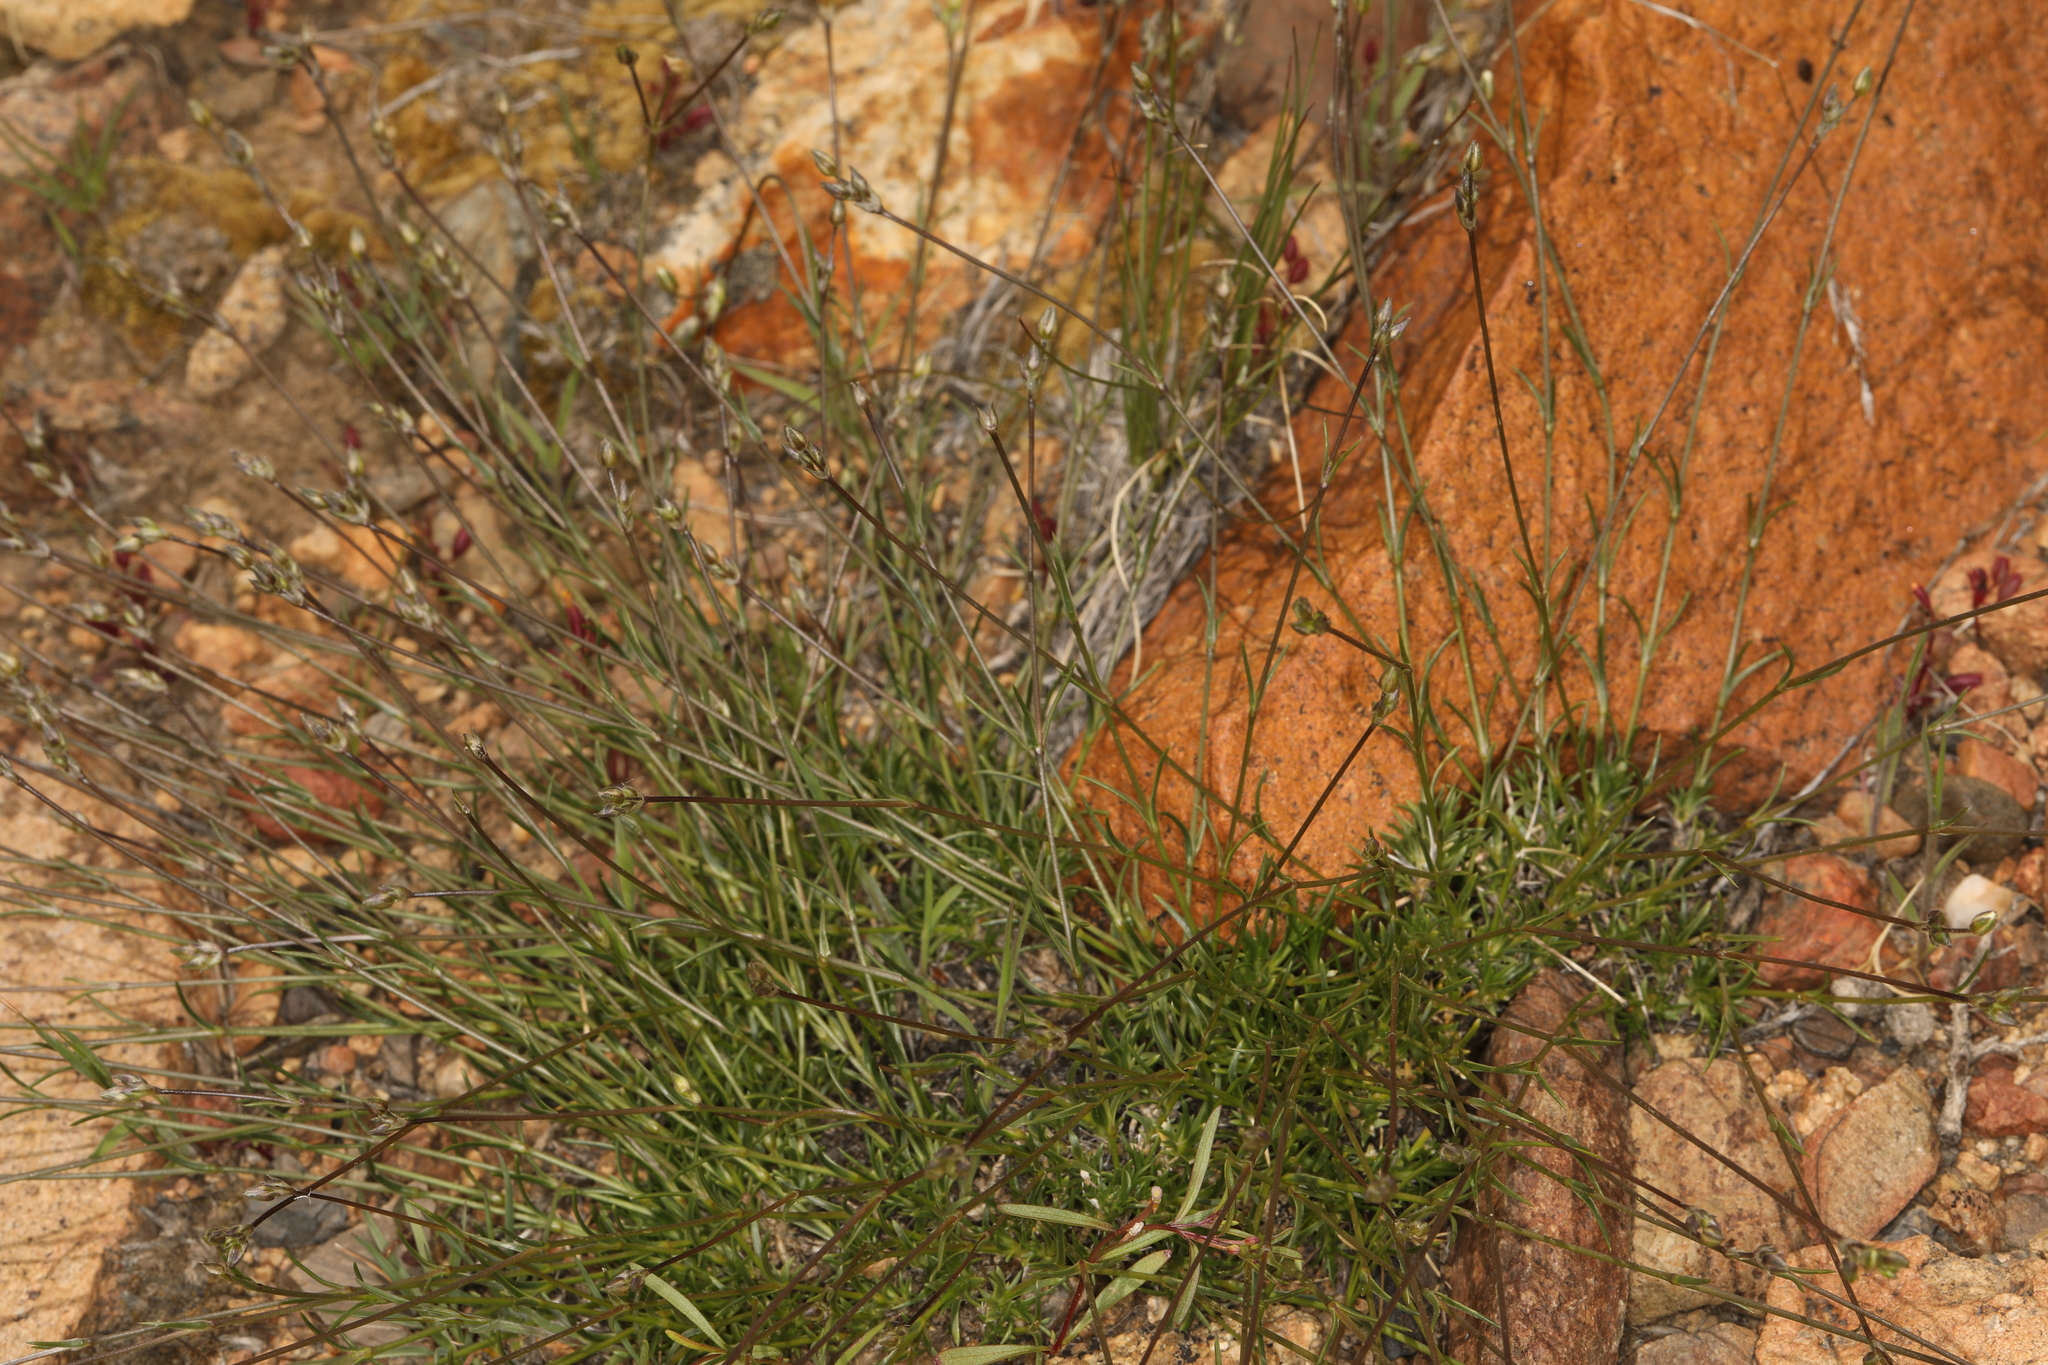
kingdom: Plantae
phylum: Tracheophyta
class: Magnoliopsida
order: Caryophyllales
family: Caryophyllaceae
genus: Eremogone
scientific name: Eremogone kingii
